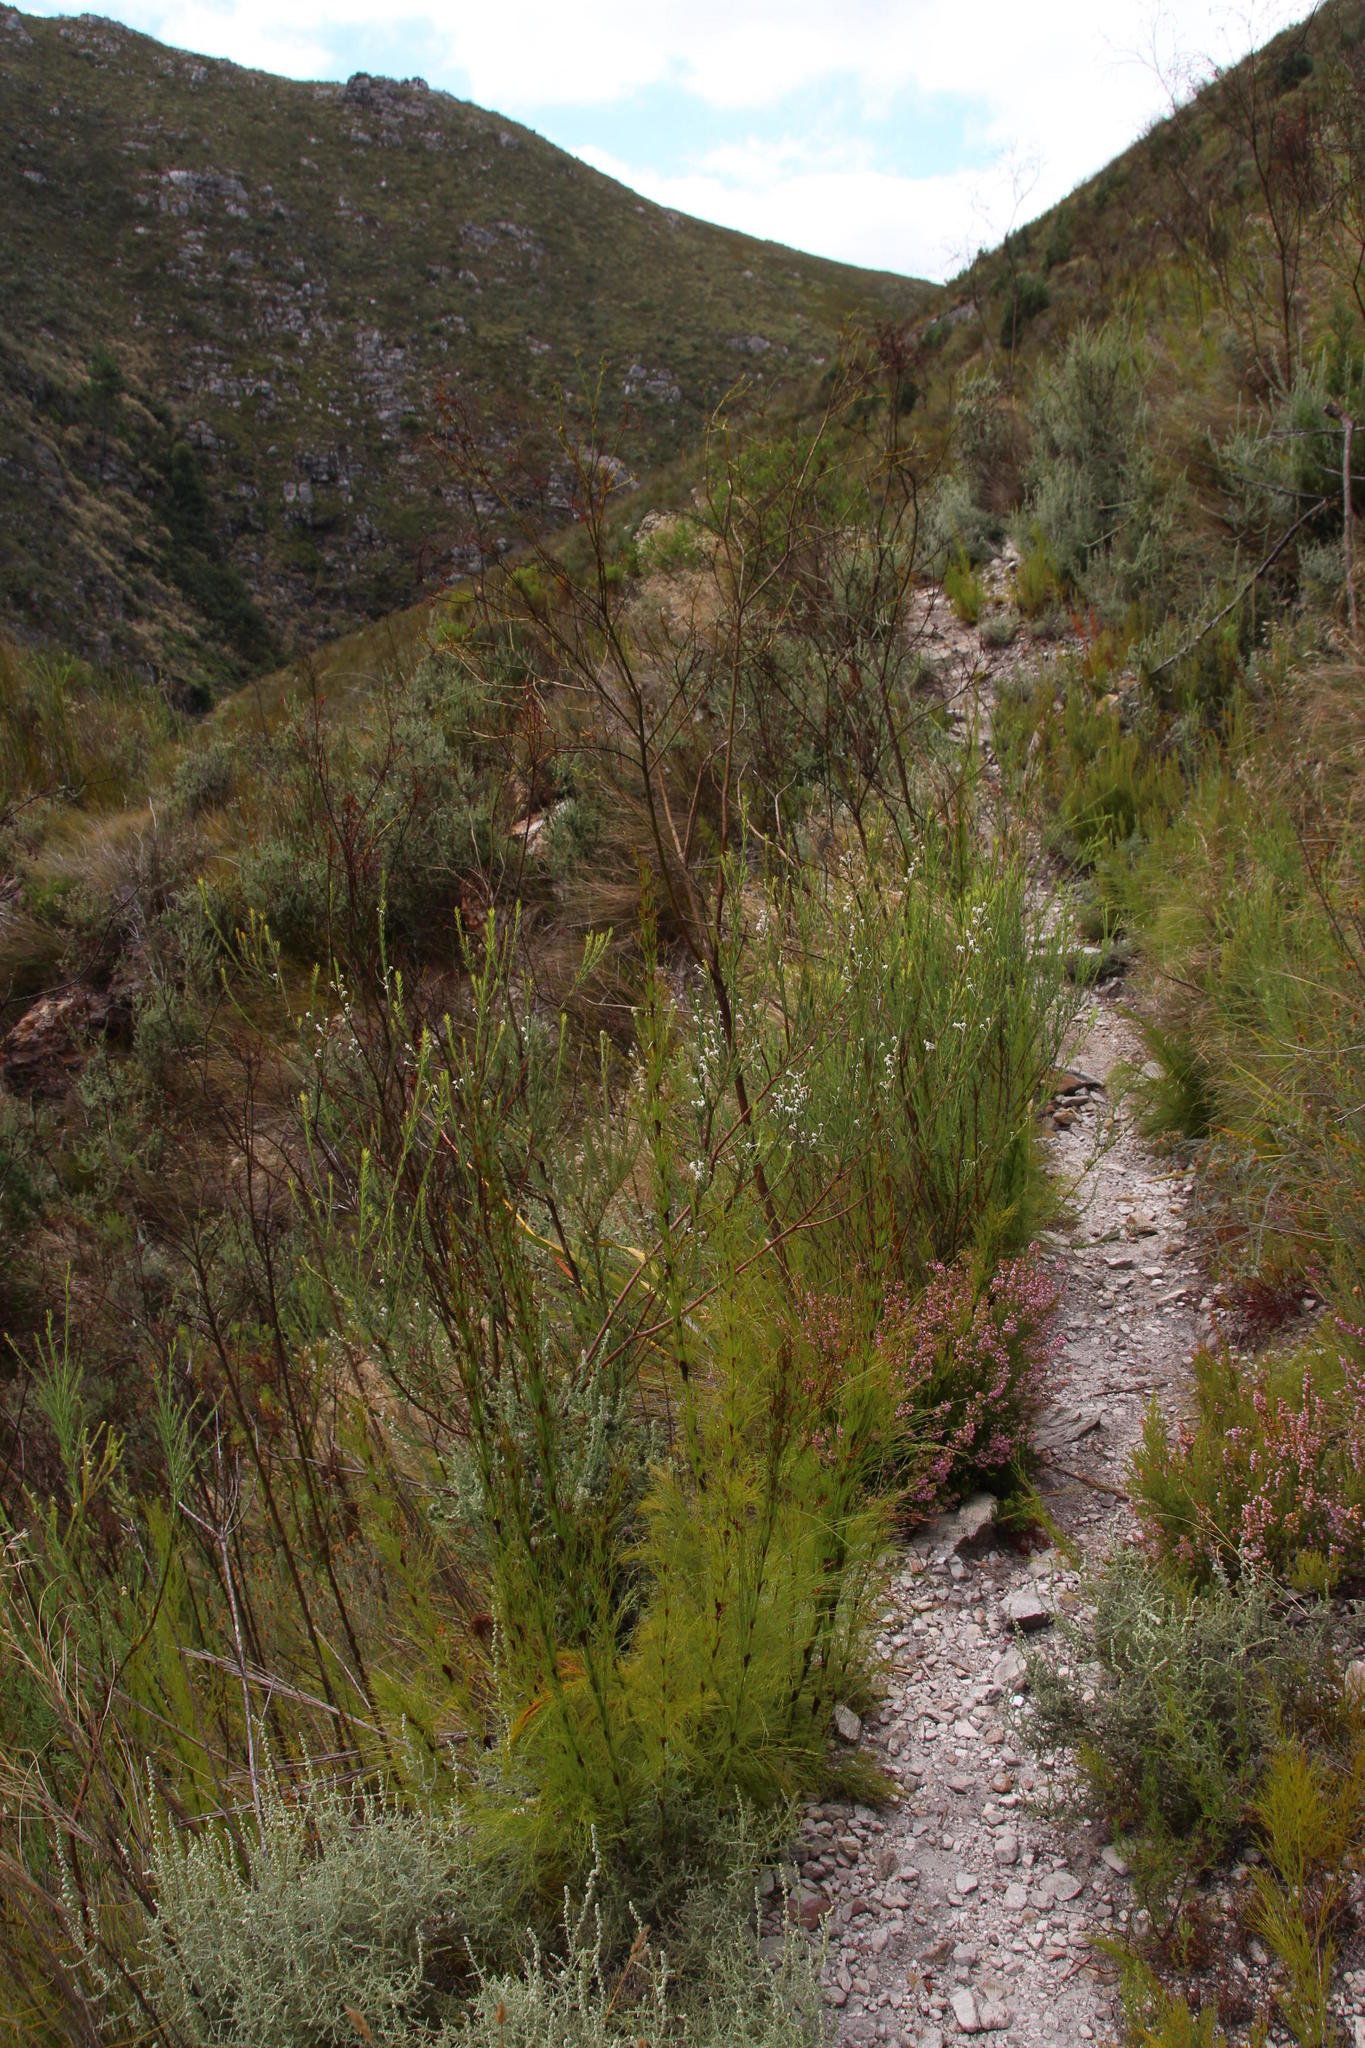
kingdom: Plantae
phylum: Tracheophyta
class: Magnoliopsida
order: Rosales
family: Rhamnaceae
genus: Phylica
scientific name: Phylica excelsa
